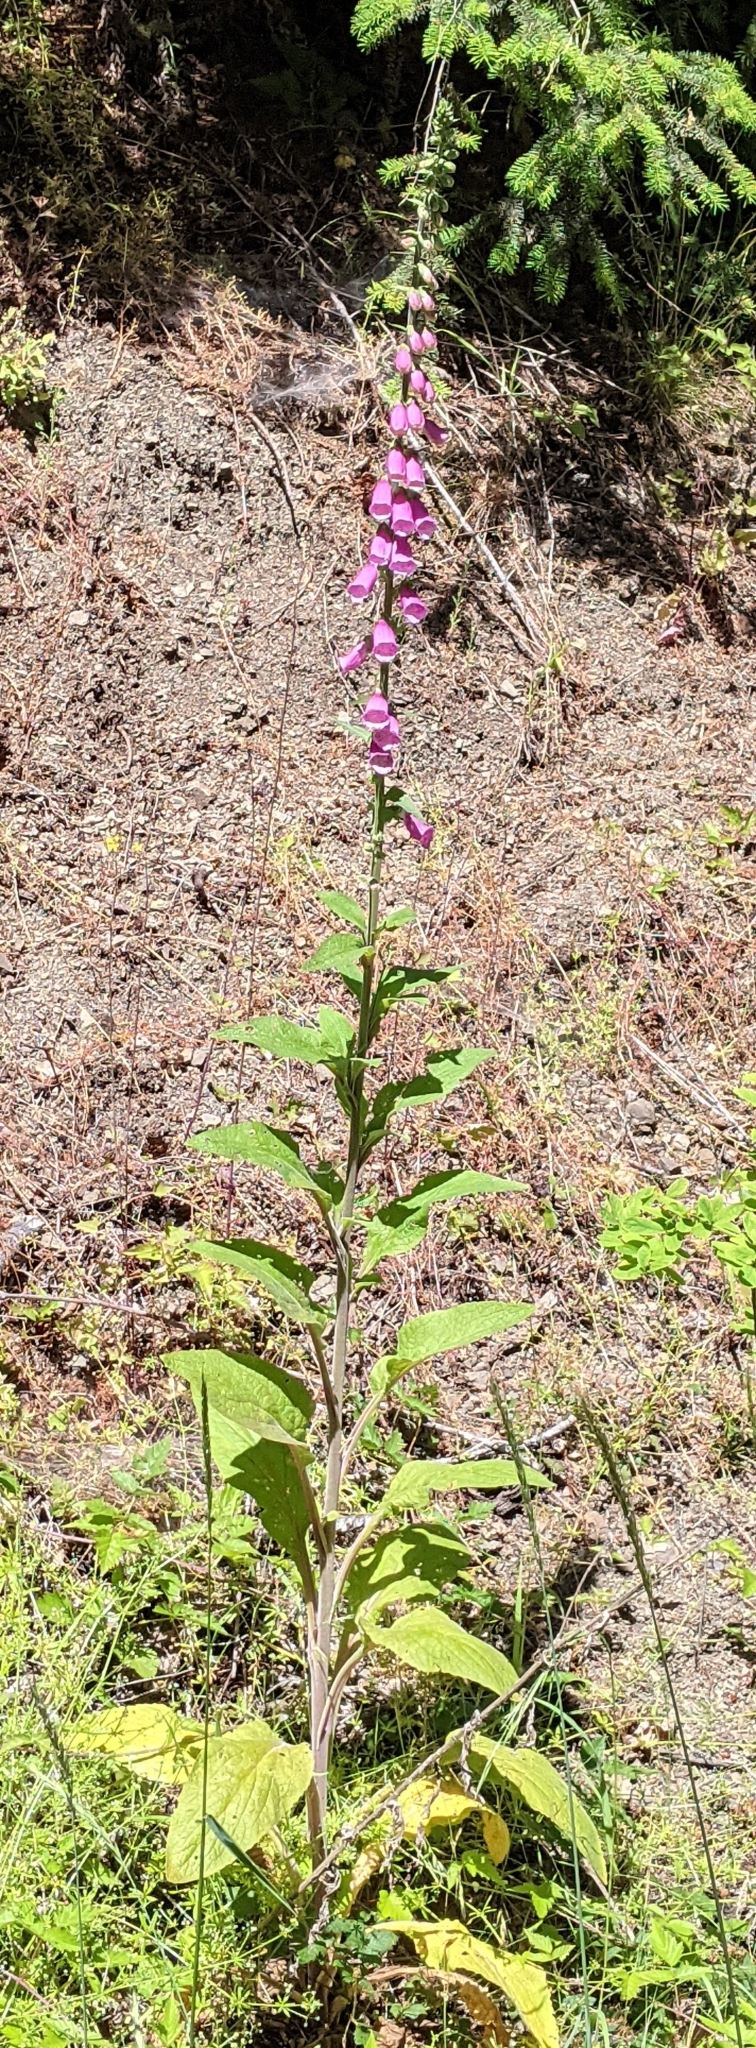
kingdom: Plantae
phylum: Tracheophyta
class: Magnoliopsida
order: Lamiales
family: Plantaginaceae
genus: Digitalis
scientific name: Digitalis purpurea
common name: Foxglove
